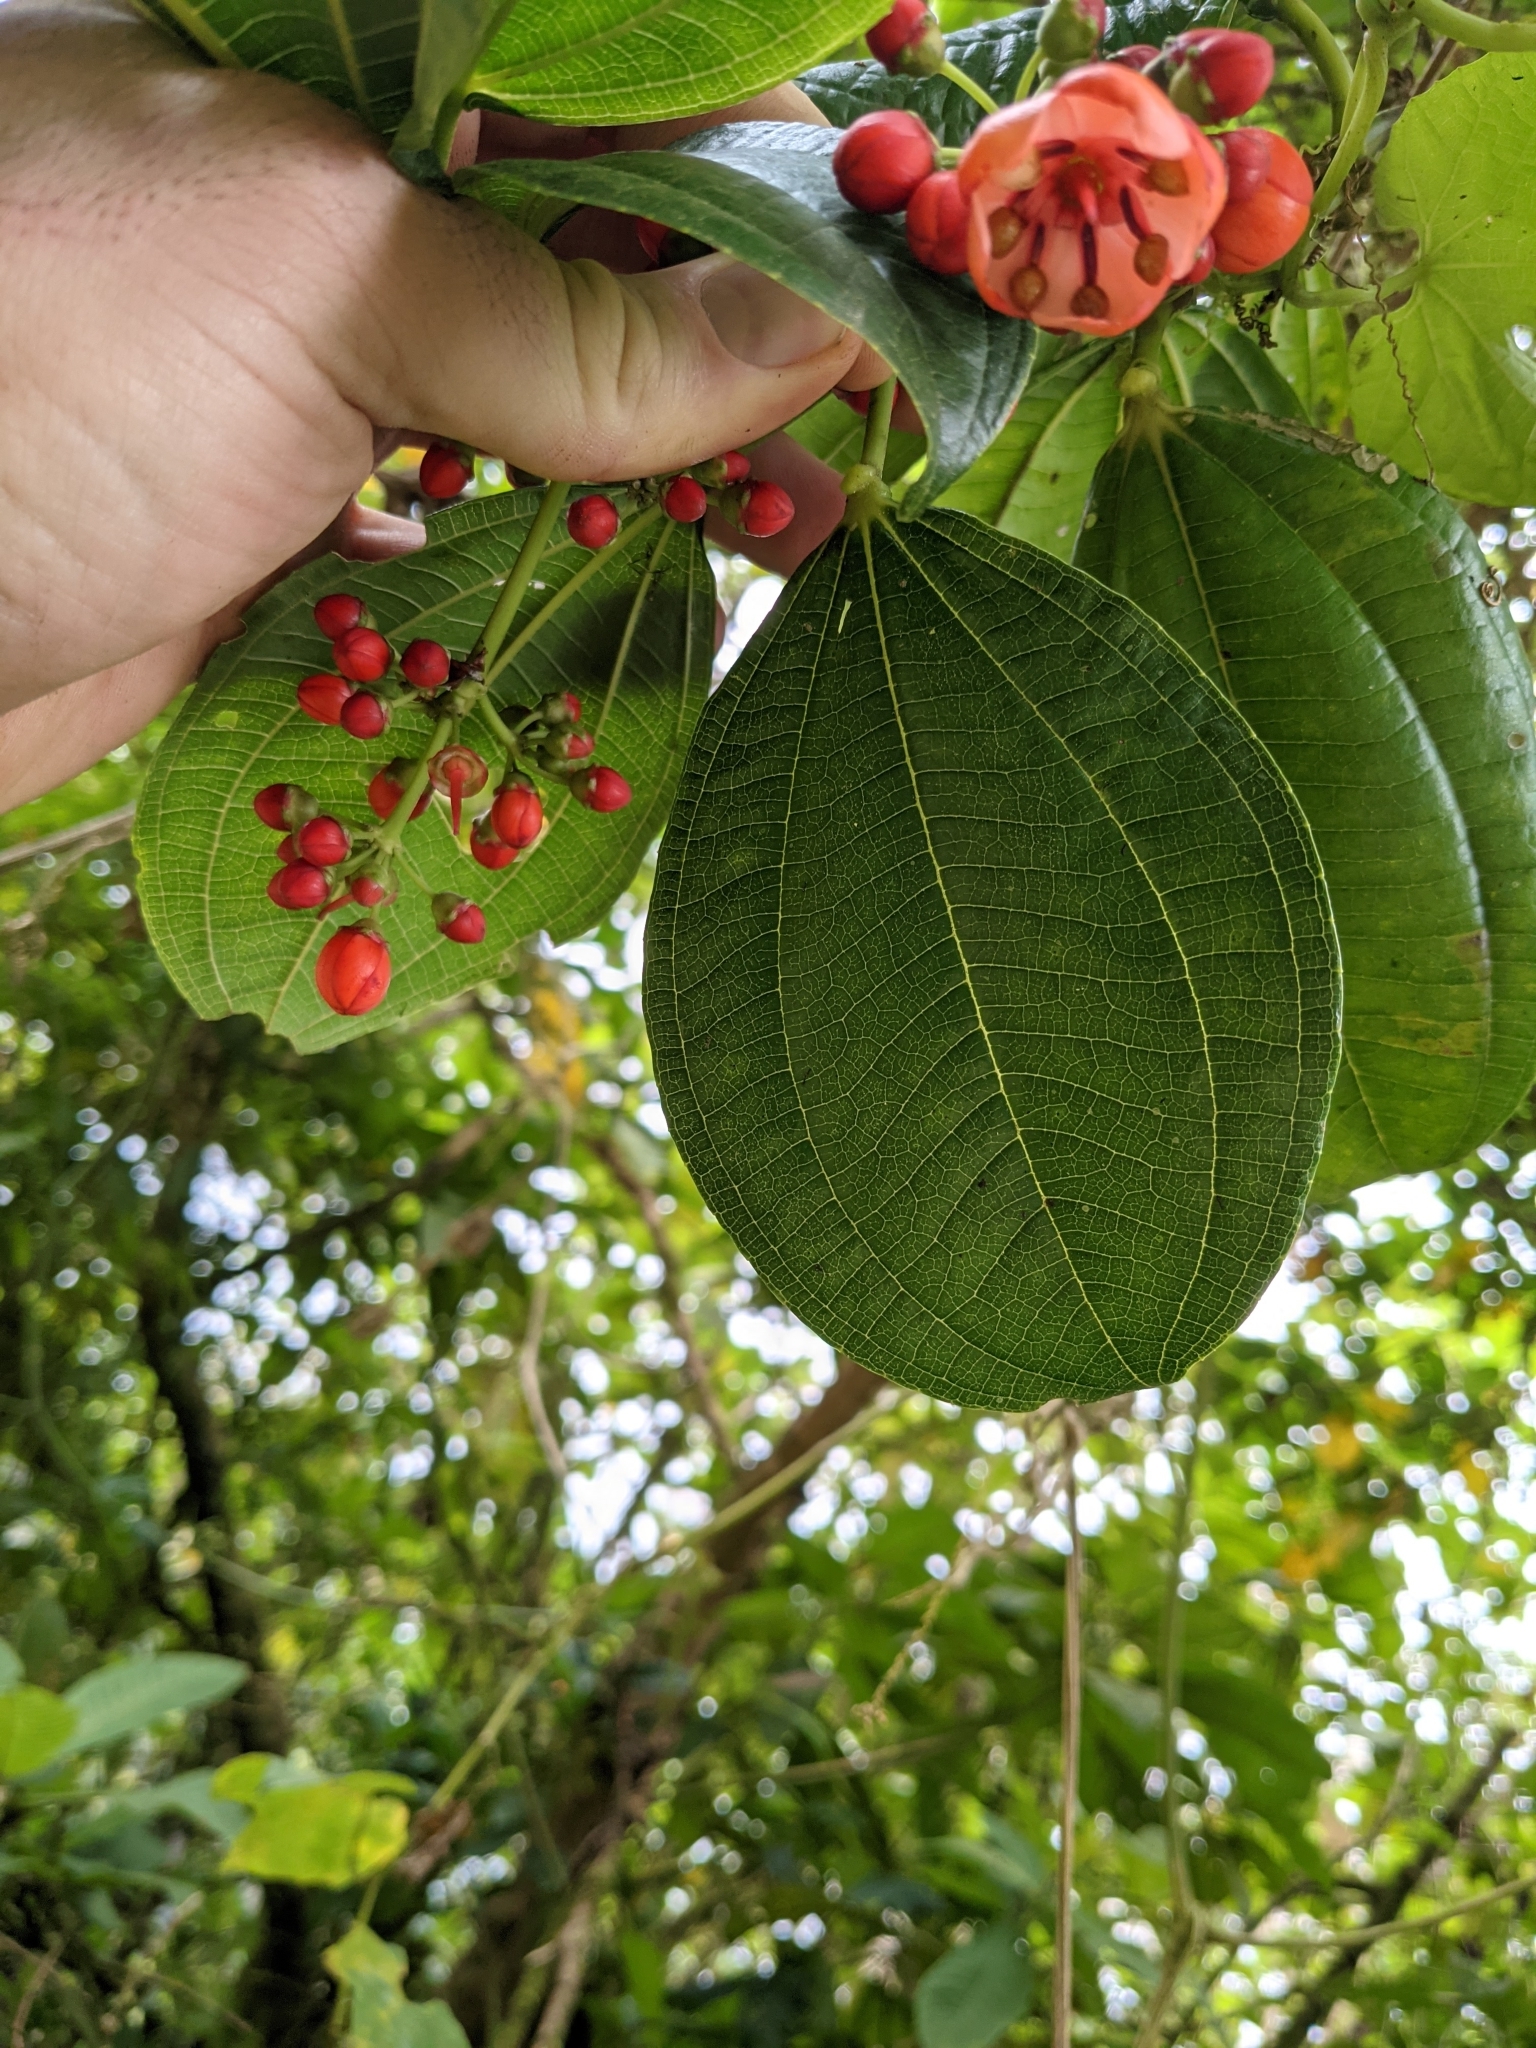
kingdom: Plantae
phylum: Tracheophyta
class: Magnoliopsida
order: Myrtales
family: Melastomataceae
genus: Axinaea
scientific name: Axinaea costaricensis
